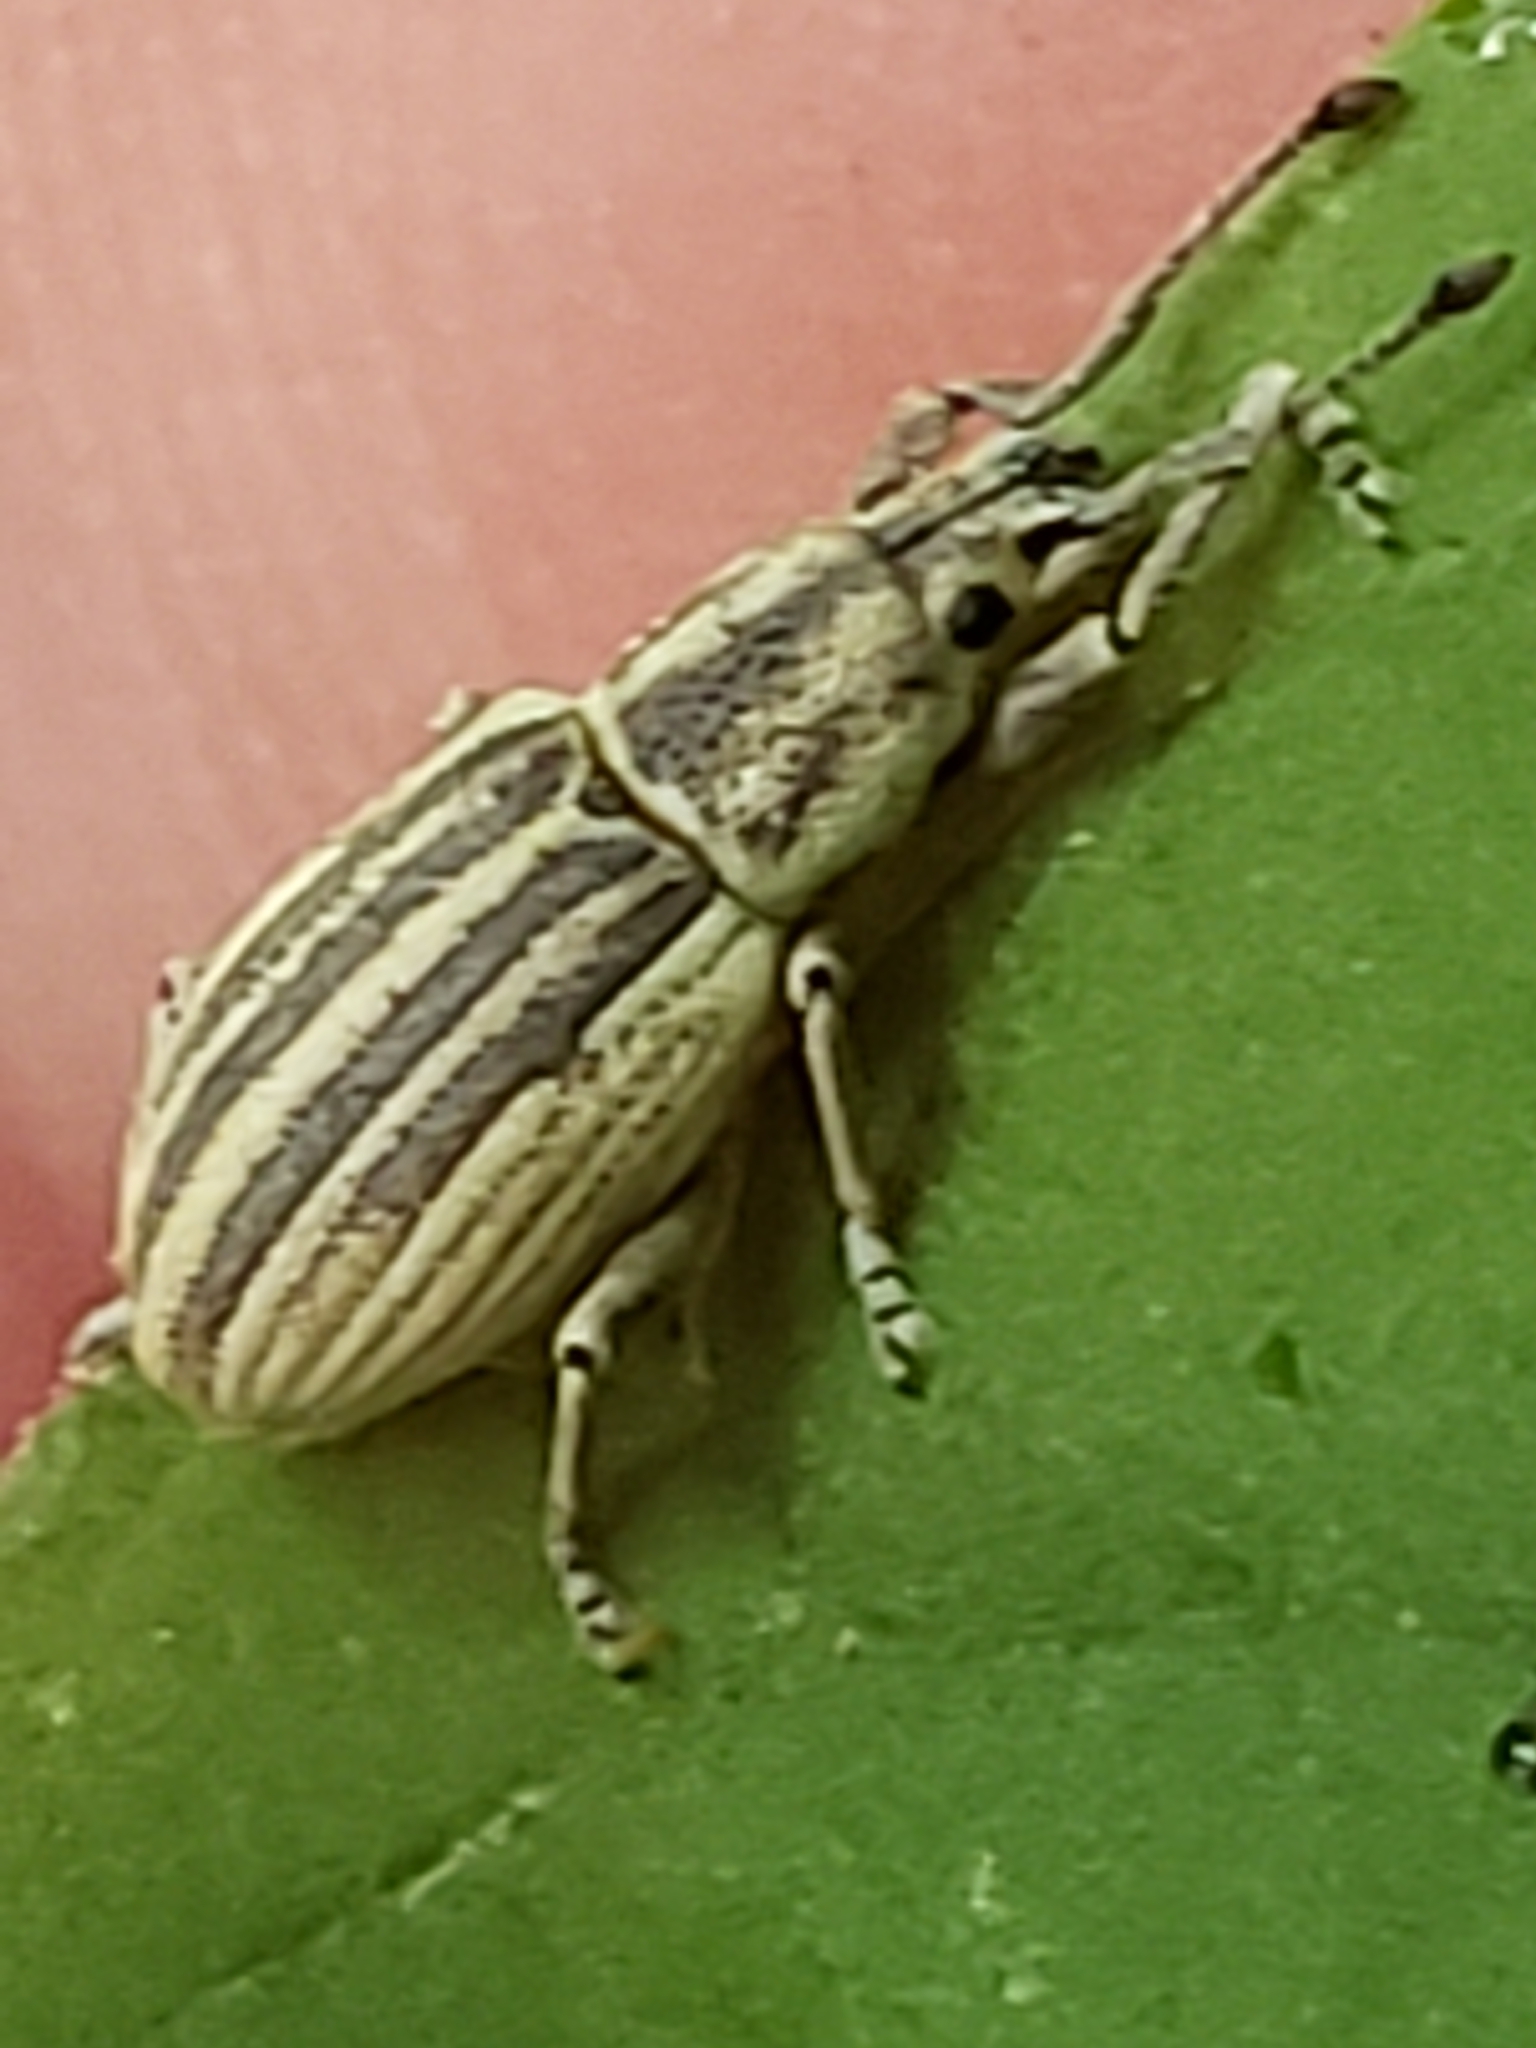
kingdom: Animalia
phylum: Arthropoda
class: Insecta
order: Coleoptera
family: Curculionidae
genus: Aphrastus
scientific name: Aphrastus taeniatus
